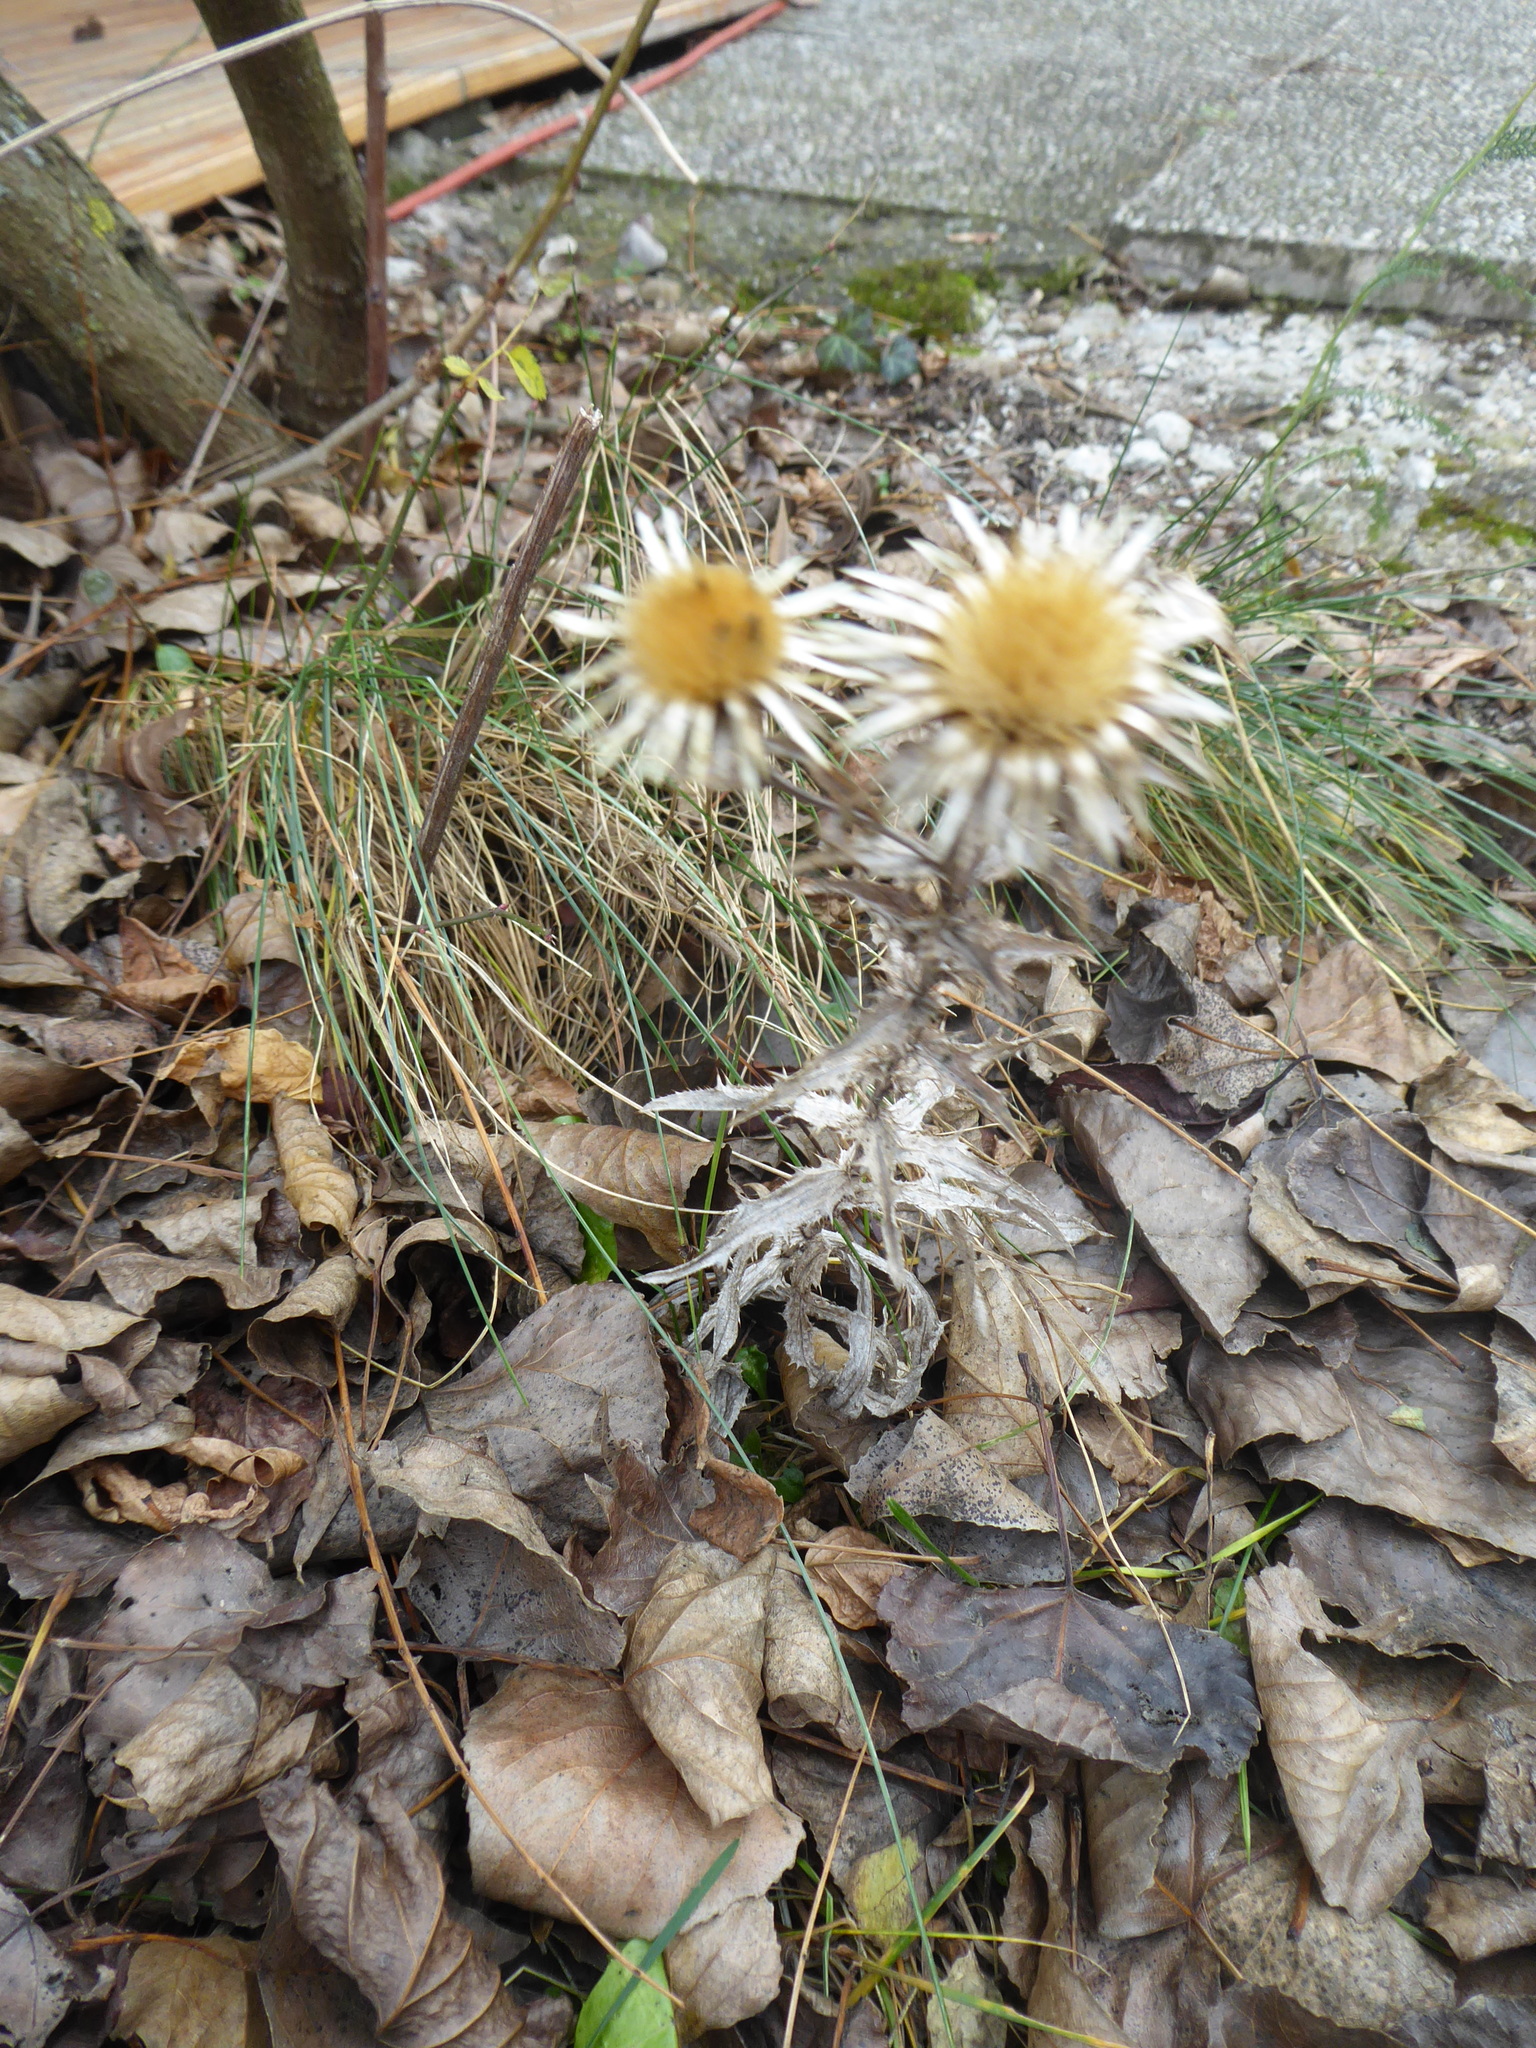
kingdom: Plantae
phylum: Tracheophyta
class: Magnoliopsida
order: Asterales
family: Asteraceae
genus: Carlina
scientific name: Carlina vulgaris
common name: Carline thistle
